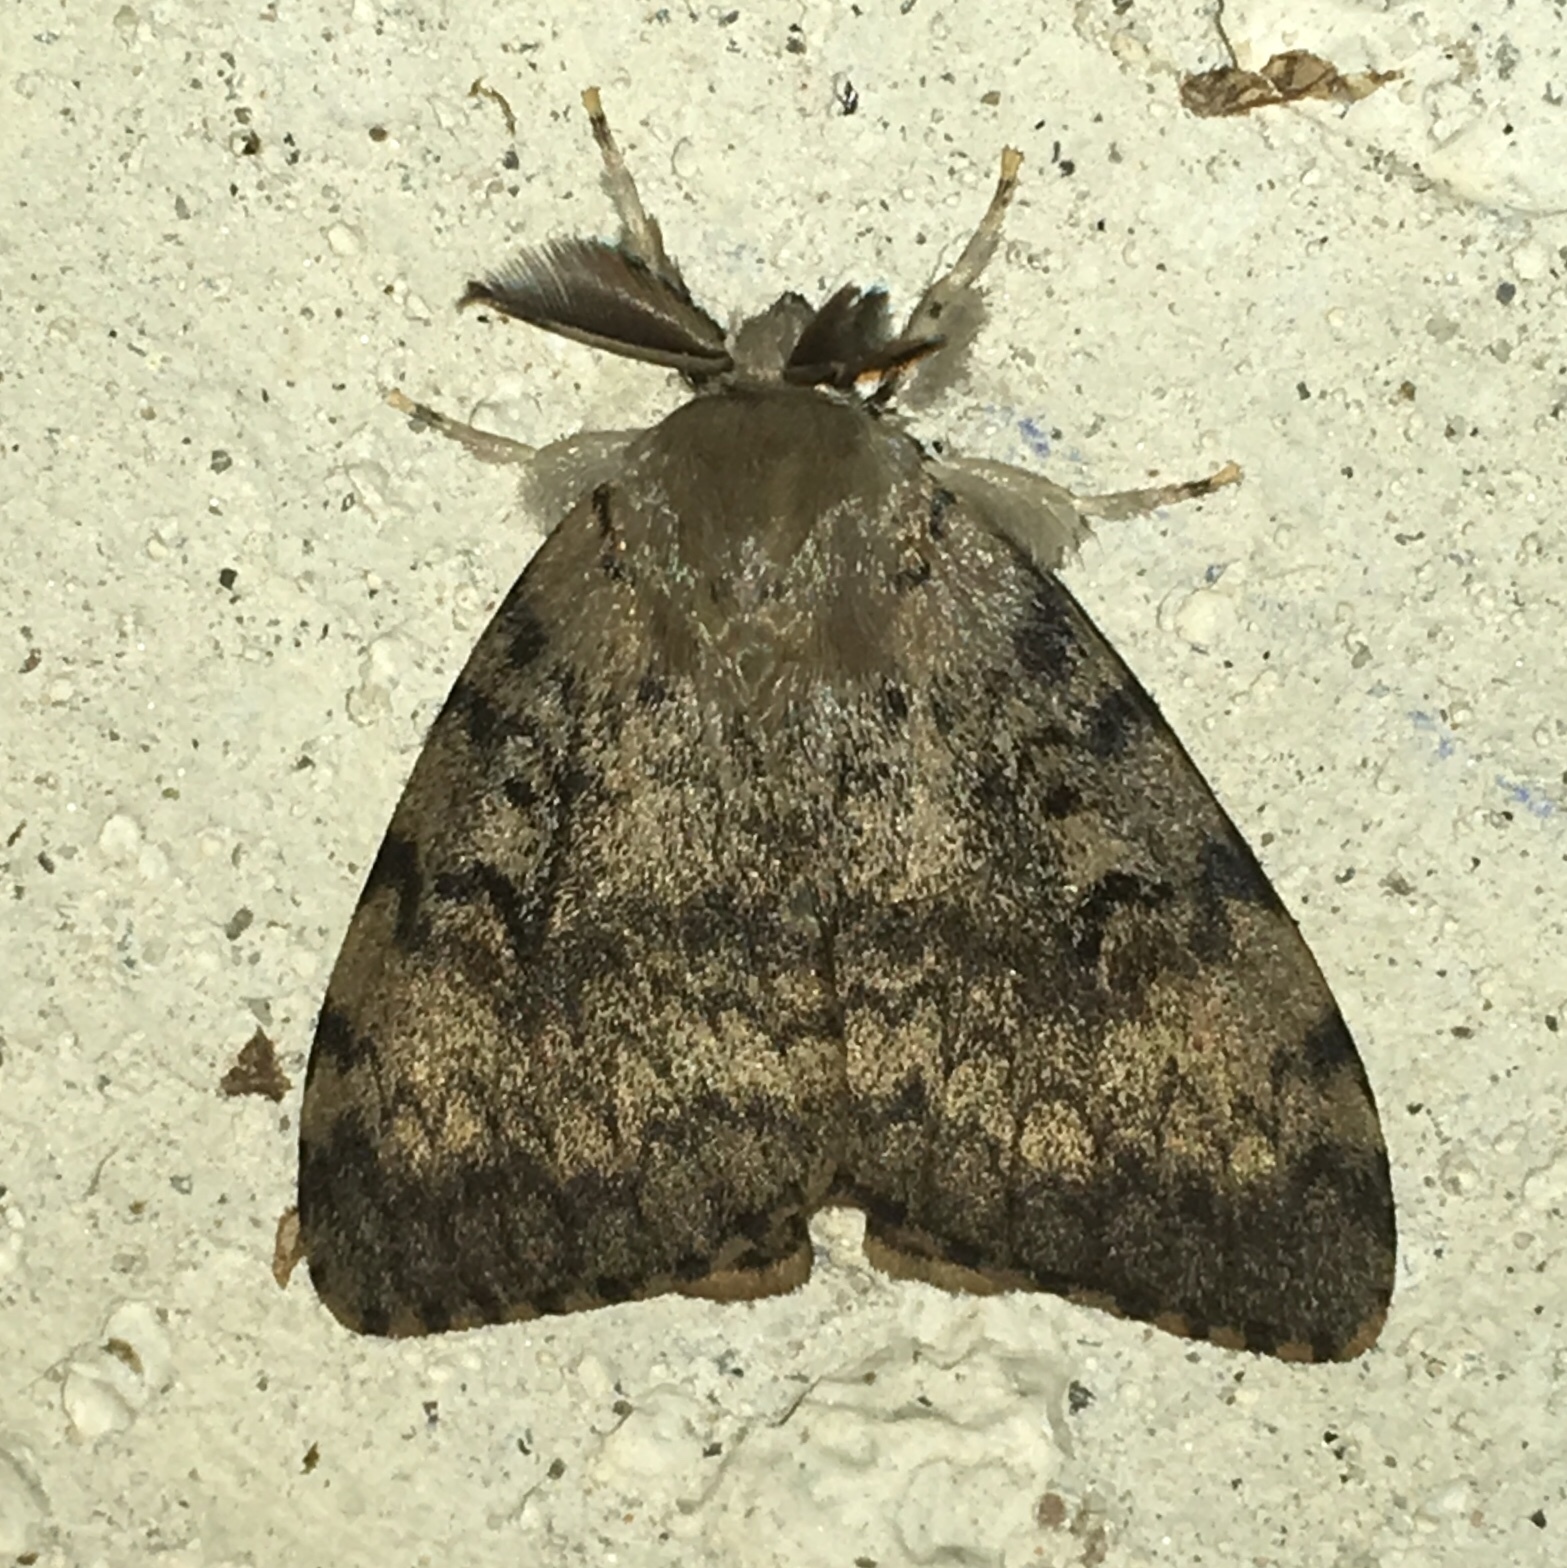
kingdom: Animalia
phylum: Arthropoda
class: Insecta
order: Lepidoptera
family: Erebidae
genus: Lymantria
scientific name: Lymantria dispar
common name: Gypsy moth
